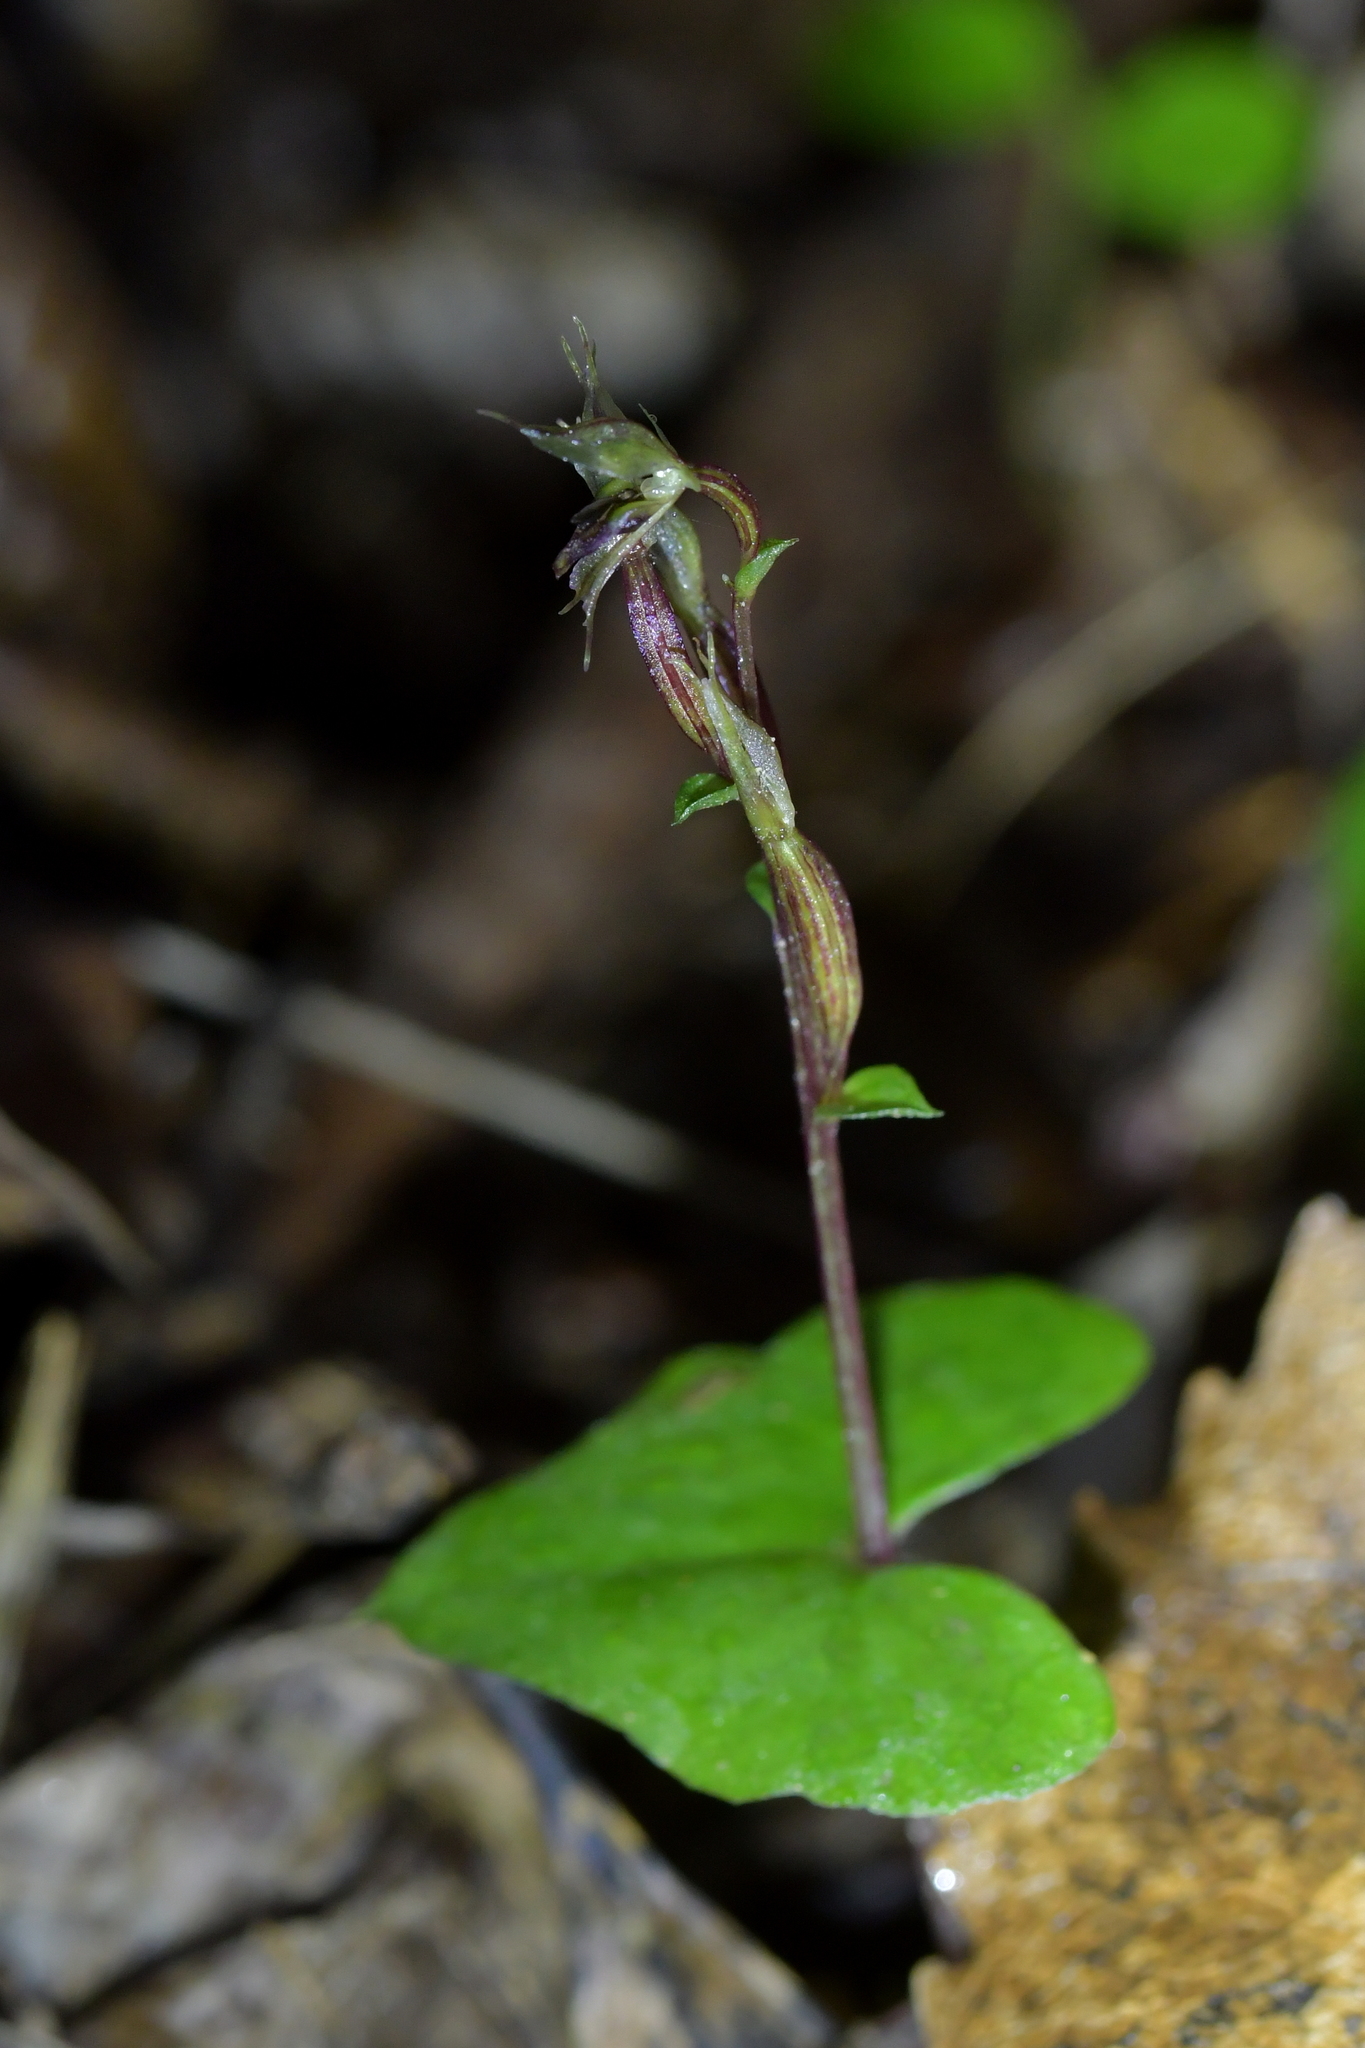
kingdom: Plantae
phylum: Tracheophyta
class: Liliopsida
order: Asparagales
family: Orchidaceae
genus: Acianthus
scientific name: Acianthus sinclairii
